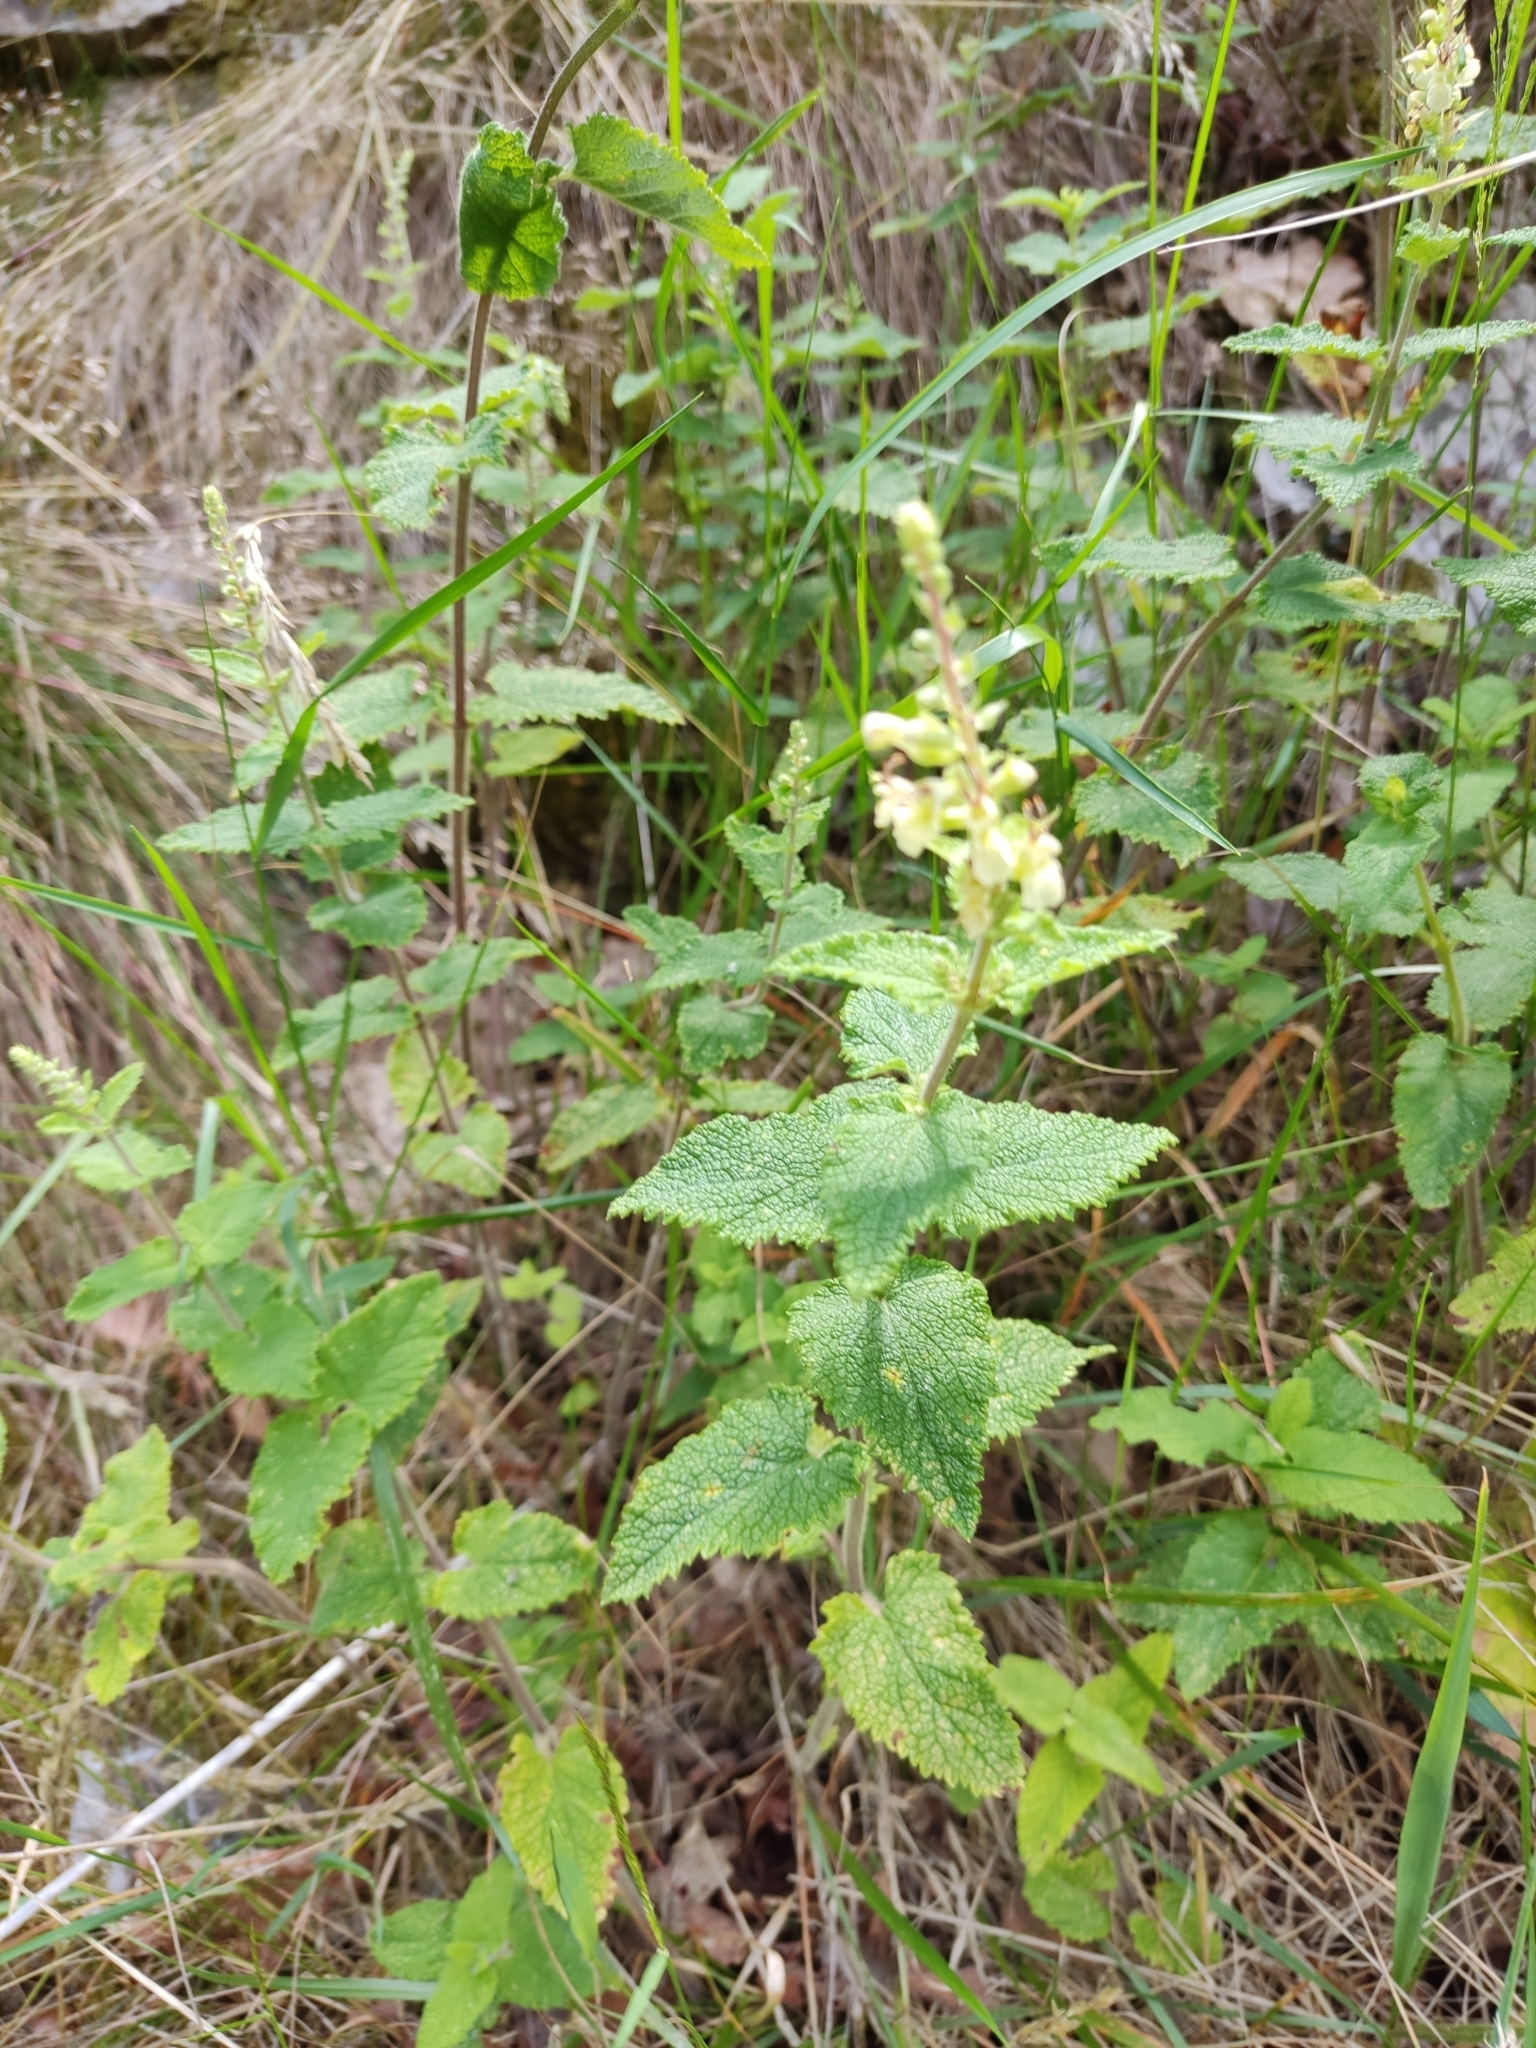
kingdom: Plantae
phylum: Tracheophyta
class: Magnoliopsida
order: Lamiales
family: Lamiaceae
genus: Teucrium
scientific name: Teucrium scorodonia
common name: Woodland germander
